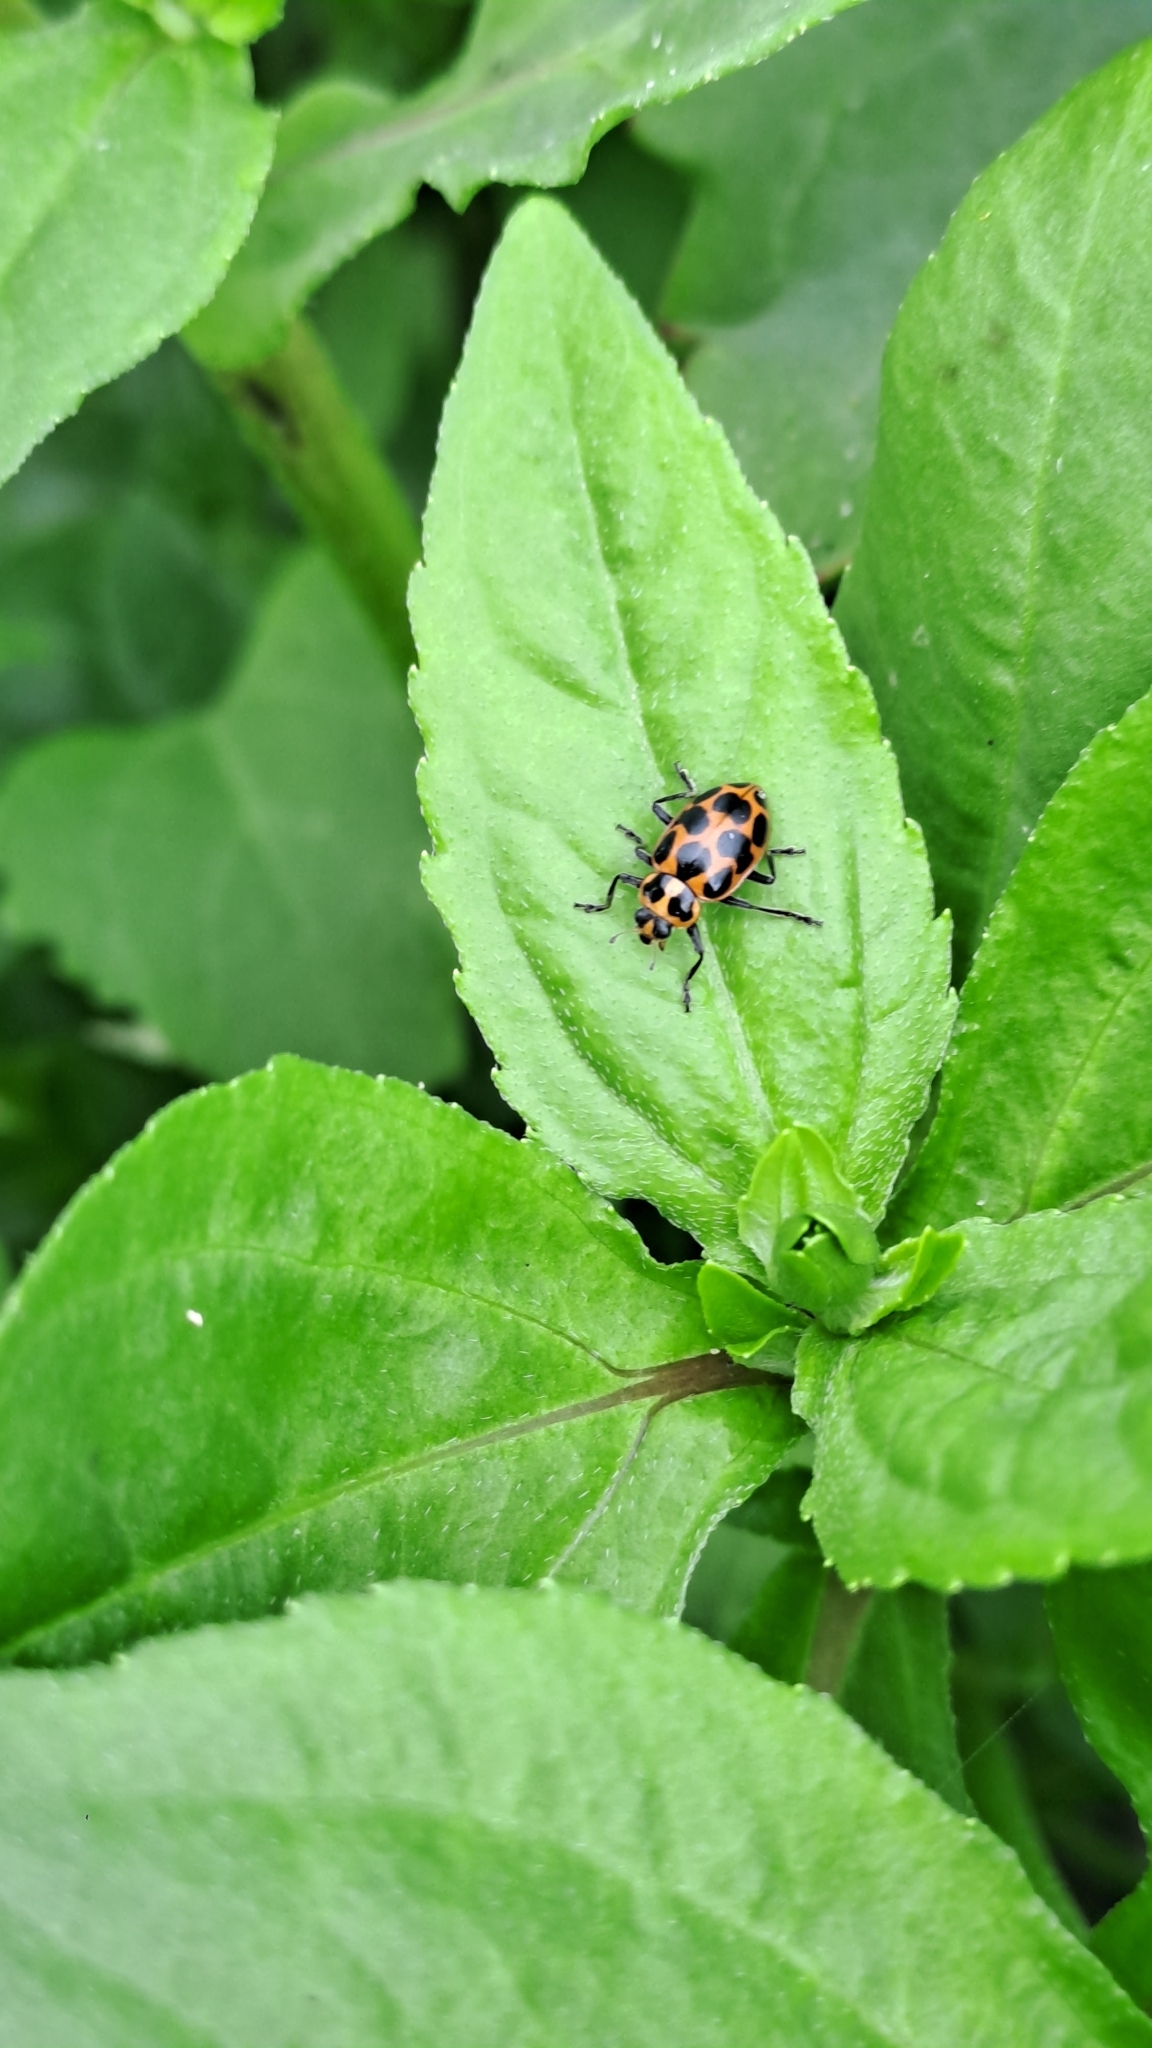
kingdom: Animalia
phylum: Arthropoda
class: Insecta
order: Coleoptera
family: Coccinellidae
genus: Coleomegilla
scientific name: Coleomegilla maculata
